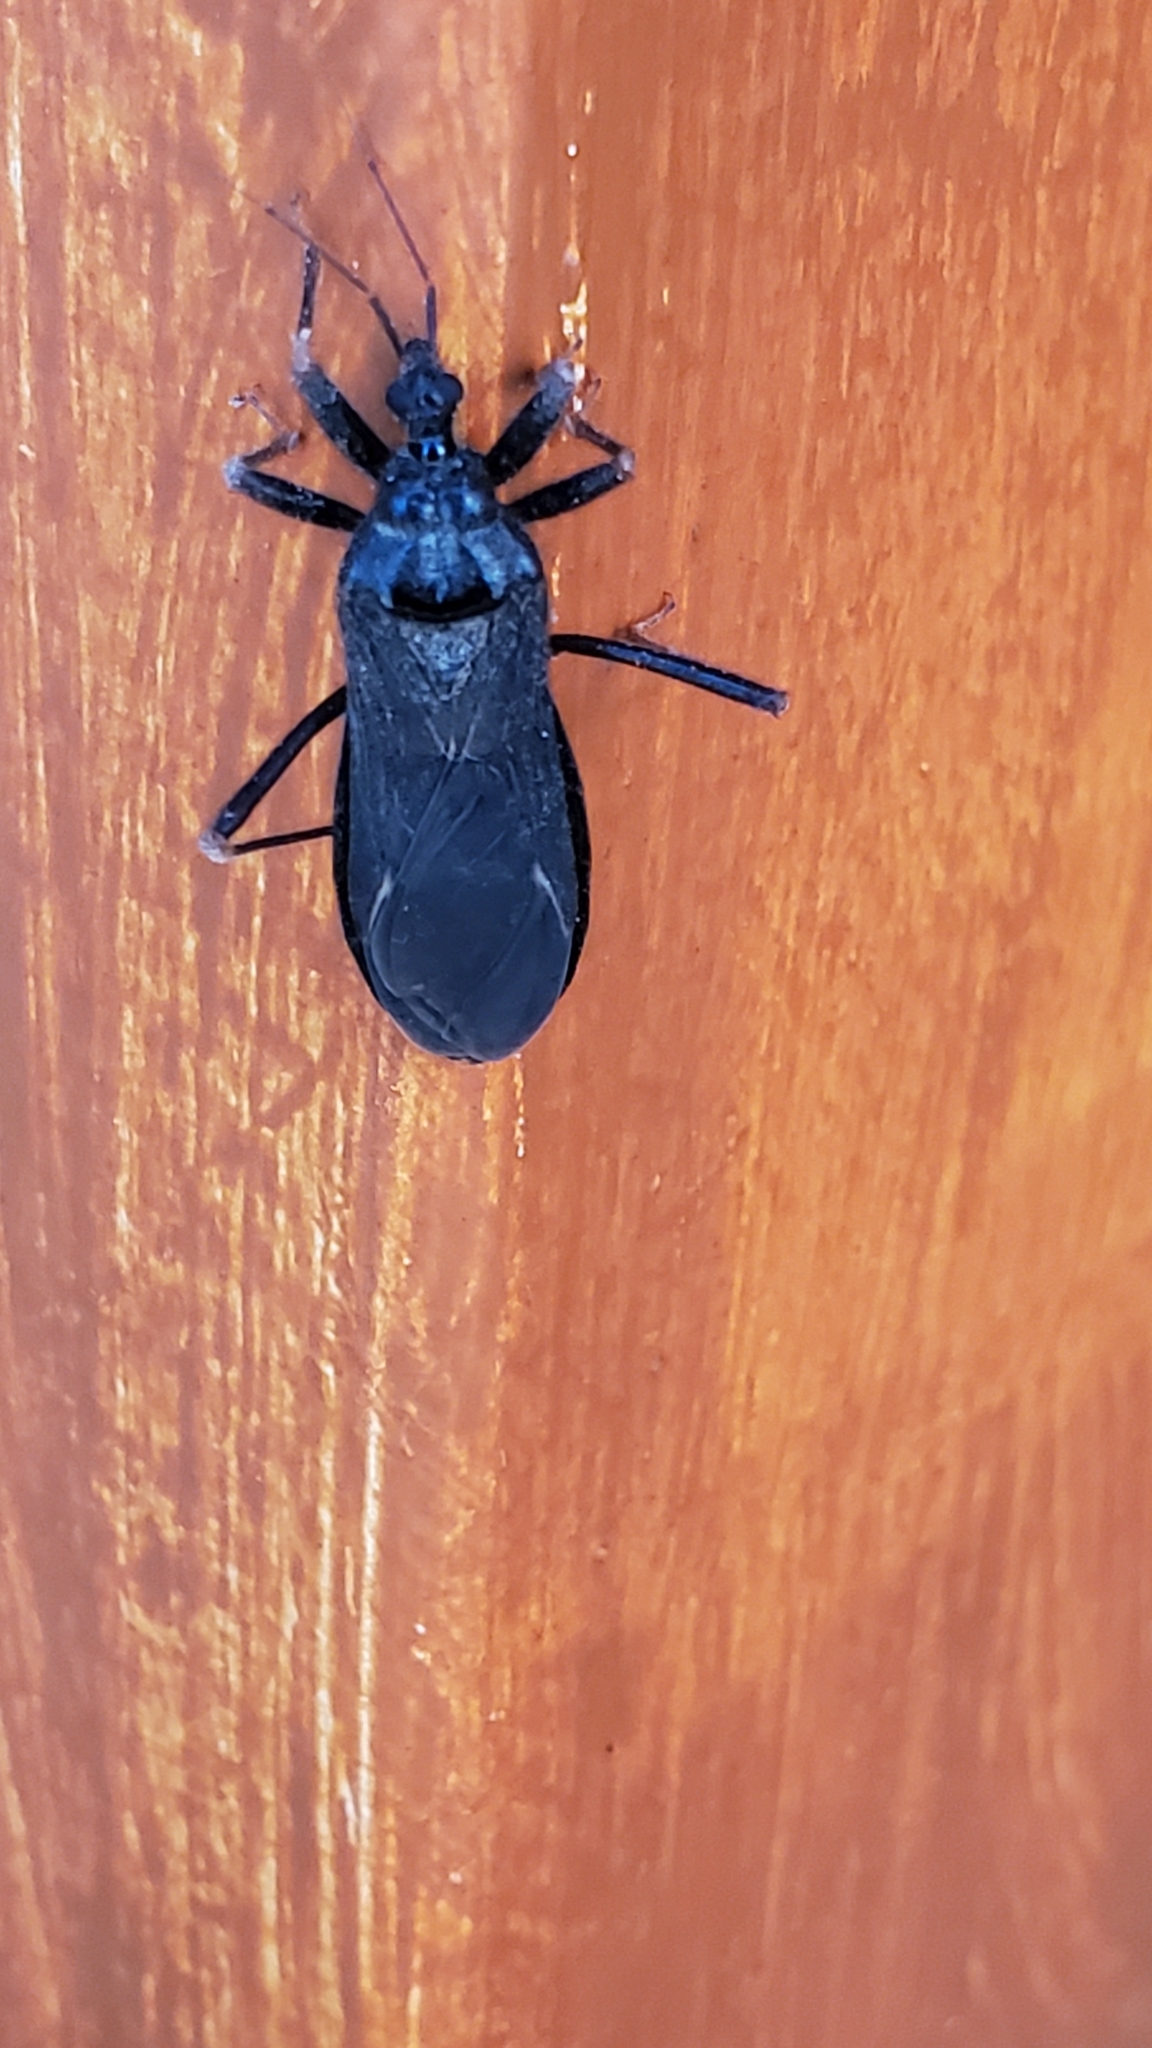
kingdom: Animalia
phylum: Arthropoda
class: Insecta
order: Hemiptera
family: Reduviidae
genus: Reduvius
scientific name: Reduvius personatus
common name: Masked hunter
